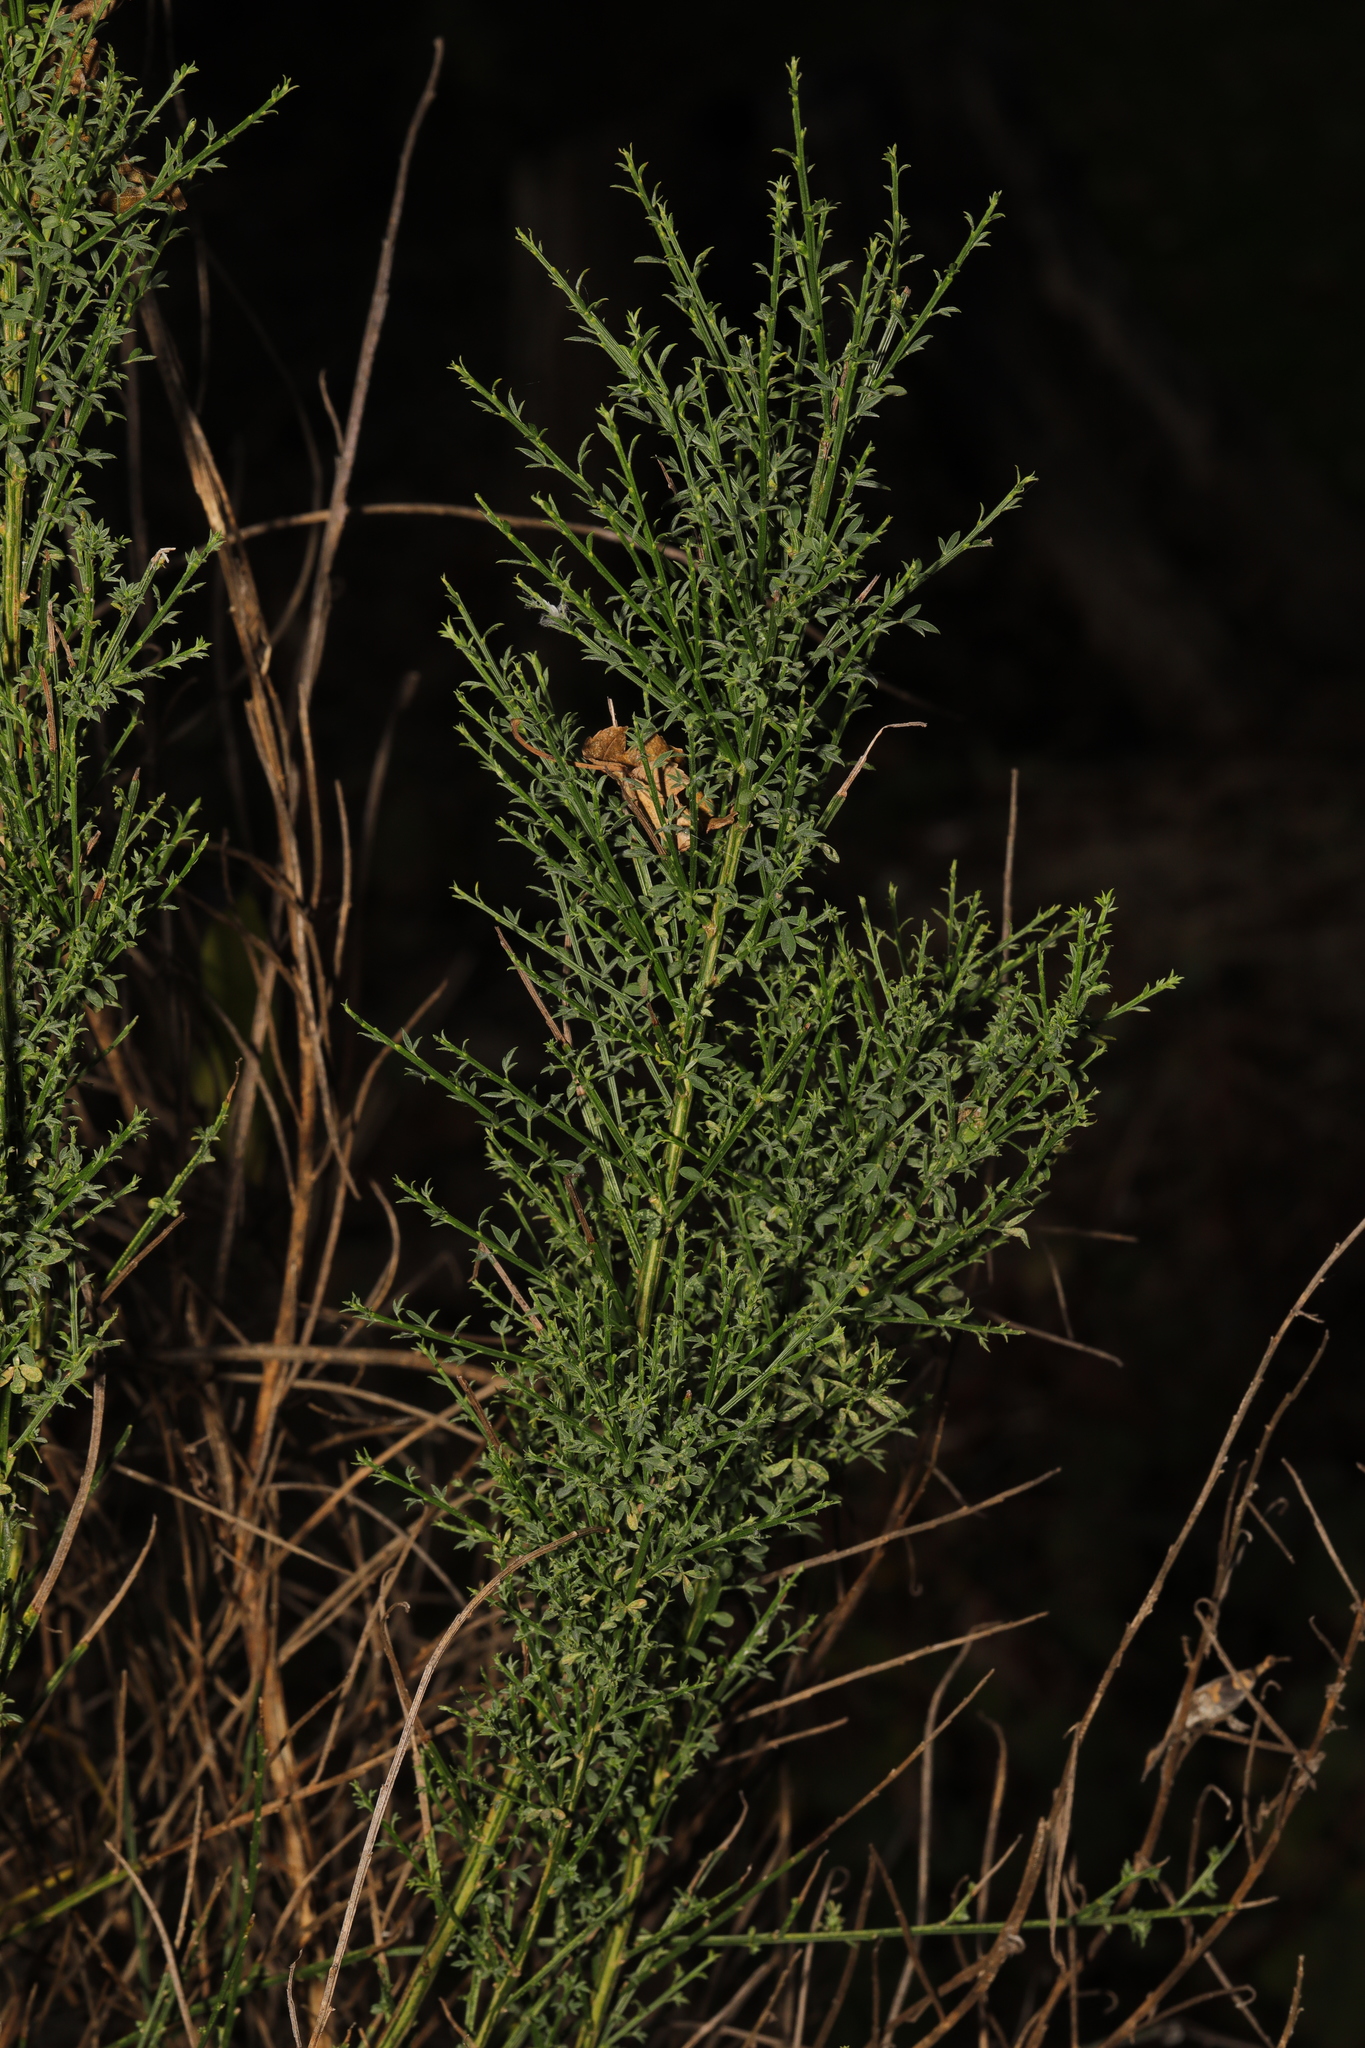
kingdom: Plantae
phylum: Tracheophyta
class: Magnoliopsida
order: Fabales
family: Fabaceae
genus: Cytisus
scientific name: Cytisus scoparius
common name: Scotch broom
